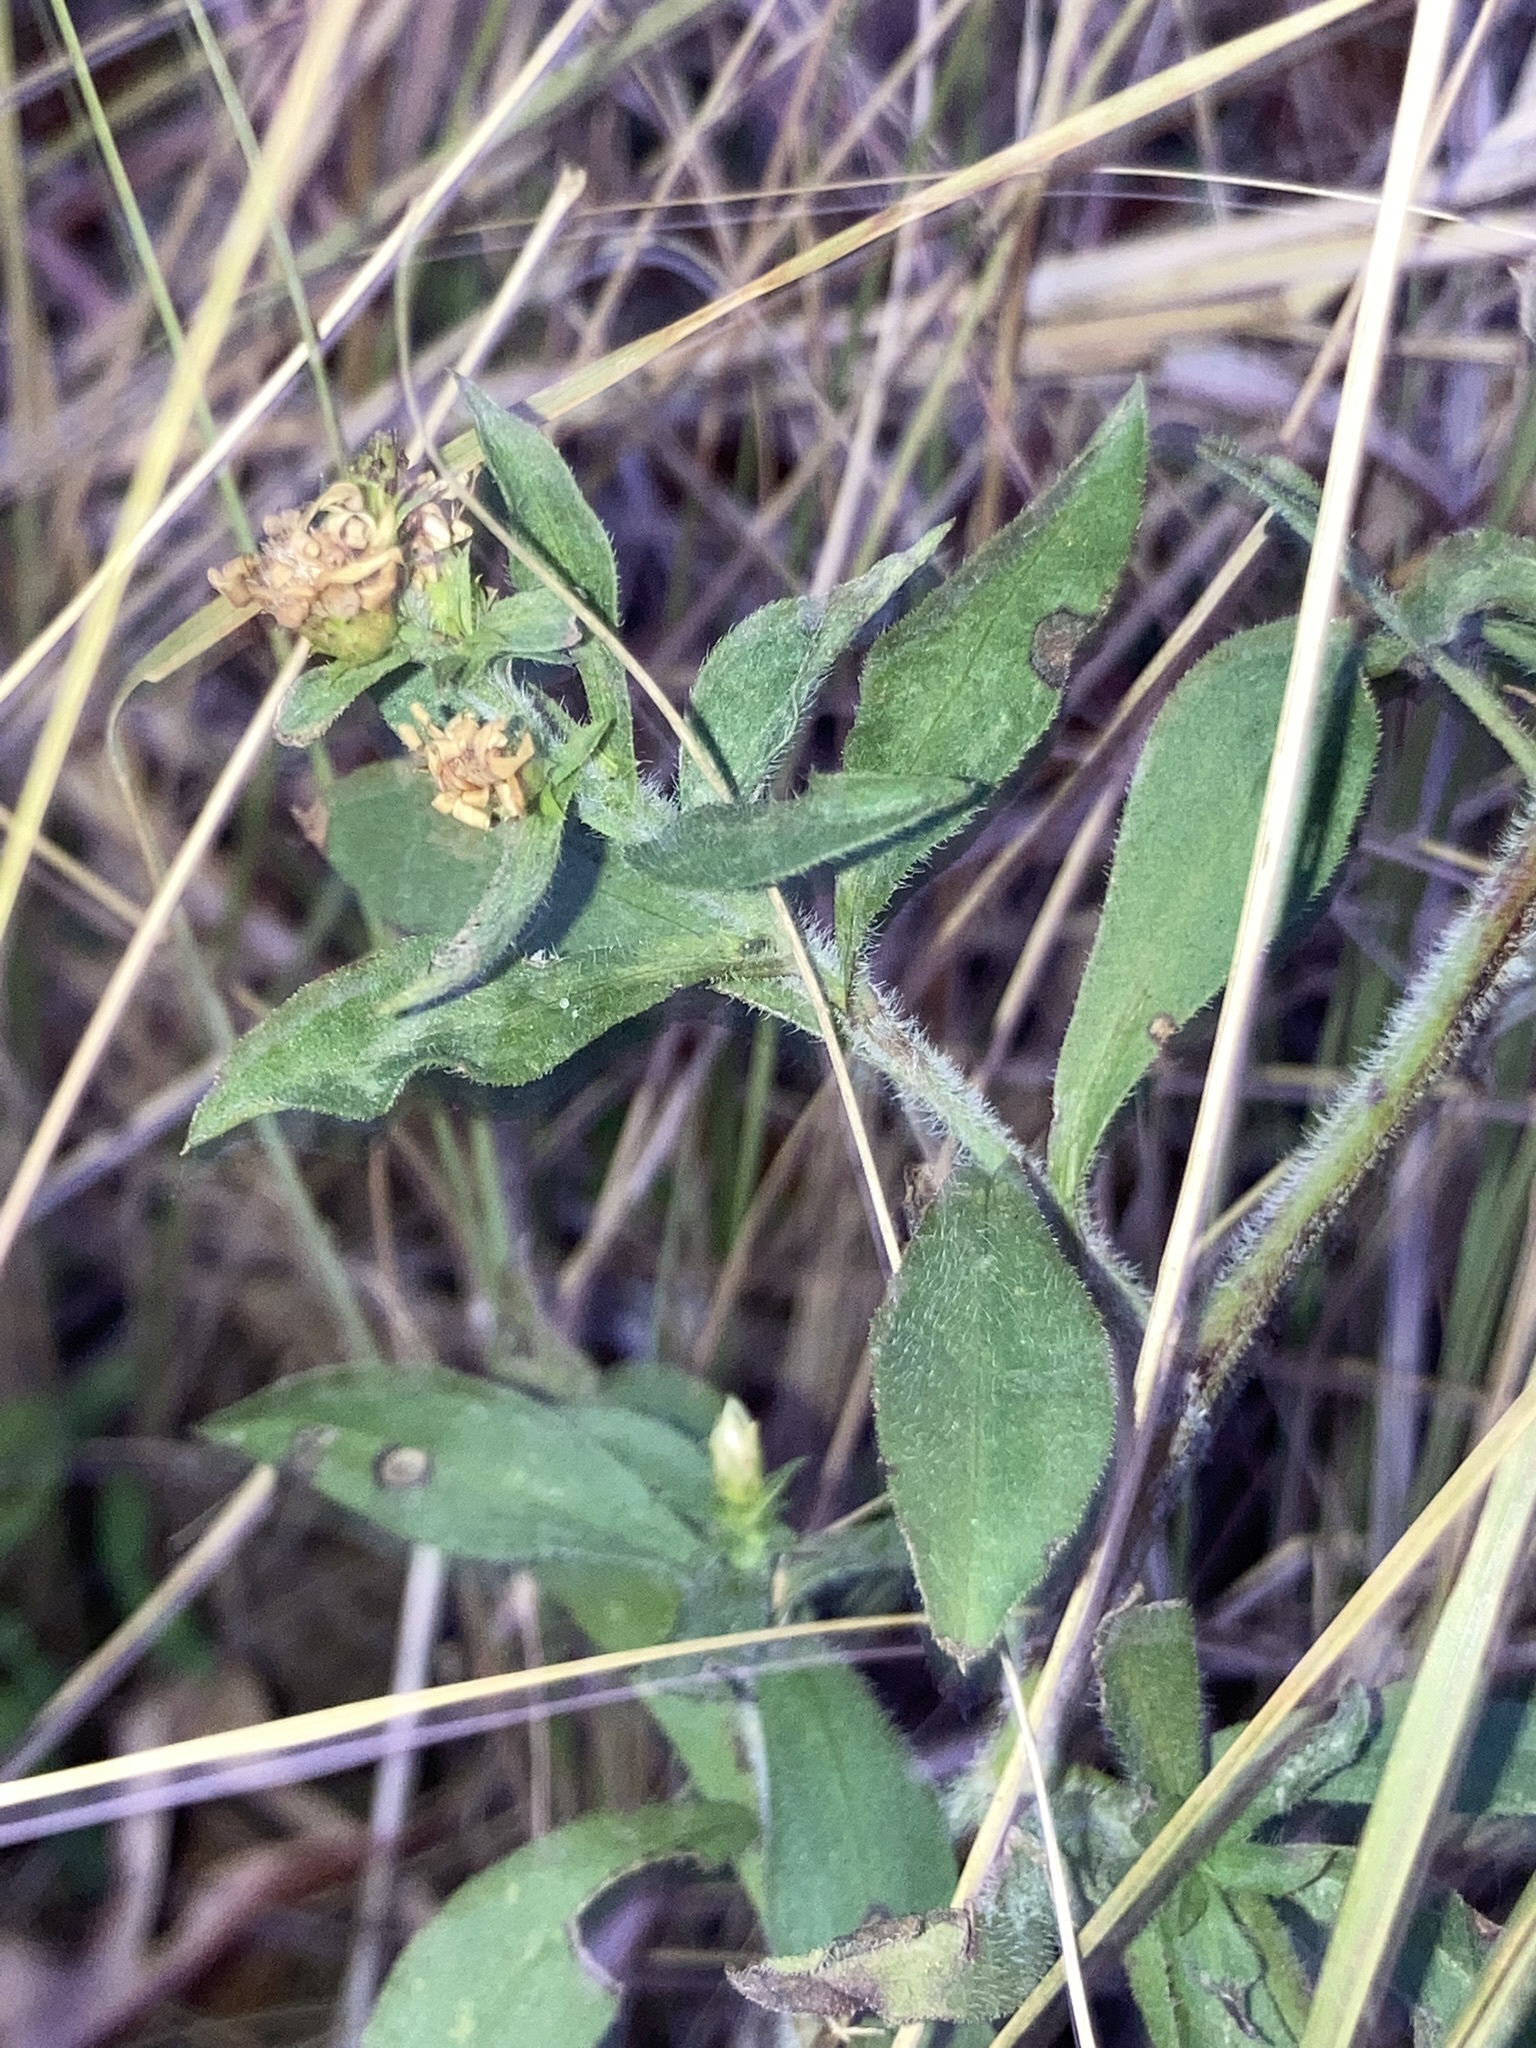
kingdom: Plantae
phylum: Tracheophyta
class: Magnoliopsida
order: Asterales
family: Asteraceae
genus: Symphyotrichum
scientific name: Symphyotrichum pilosum
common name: Awl aster
